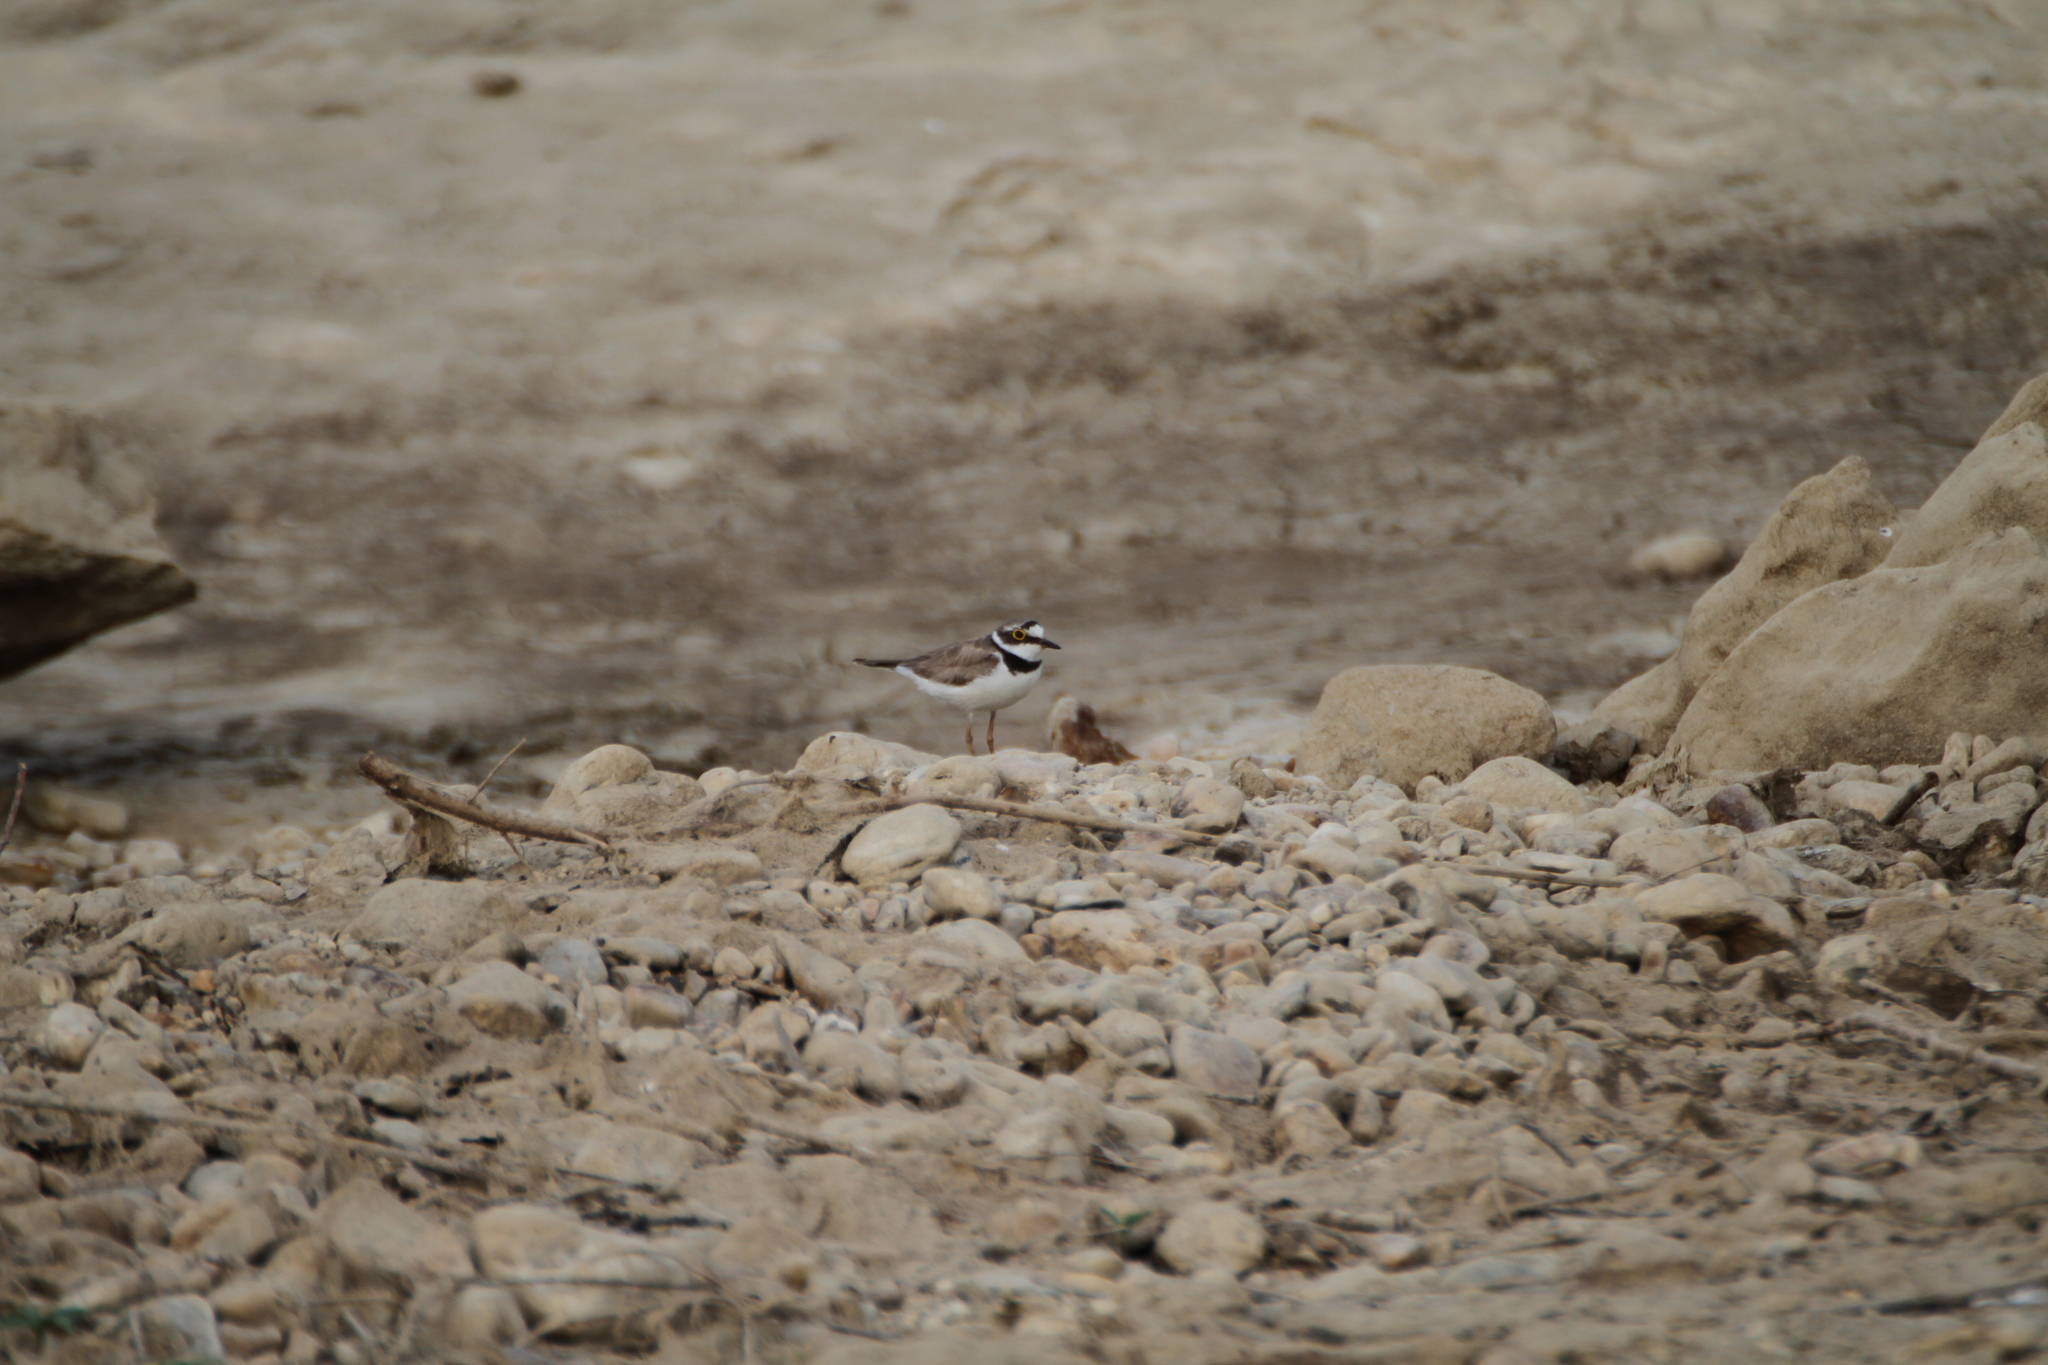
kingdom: Animalia
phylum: Chordata
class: Aves
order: Charadriiformes
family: Charadriidae
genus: Charadrius
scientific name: Charadrius dubius
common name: Little ringed plover
